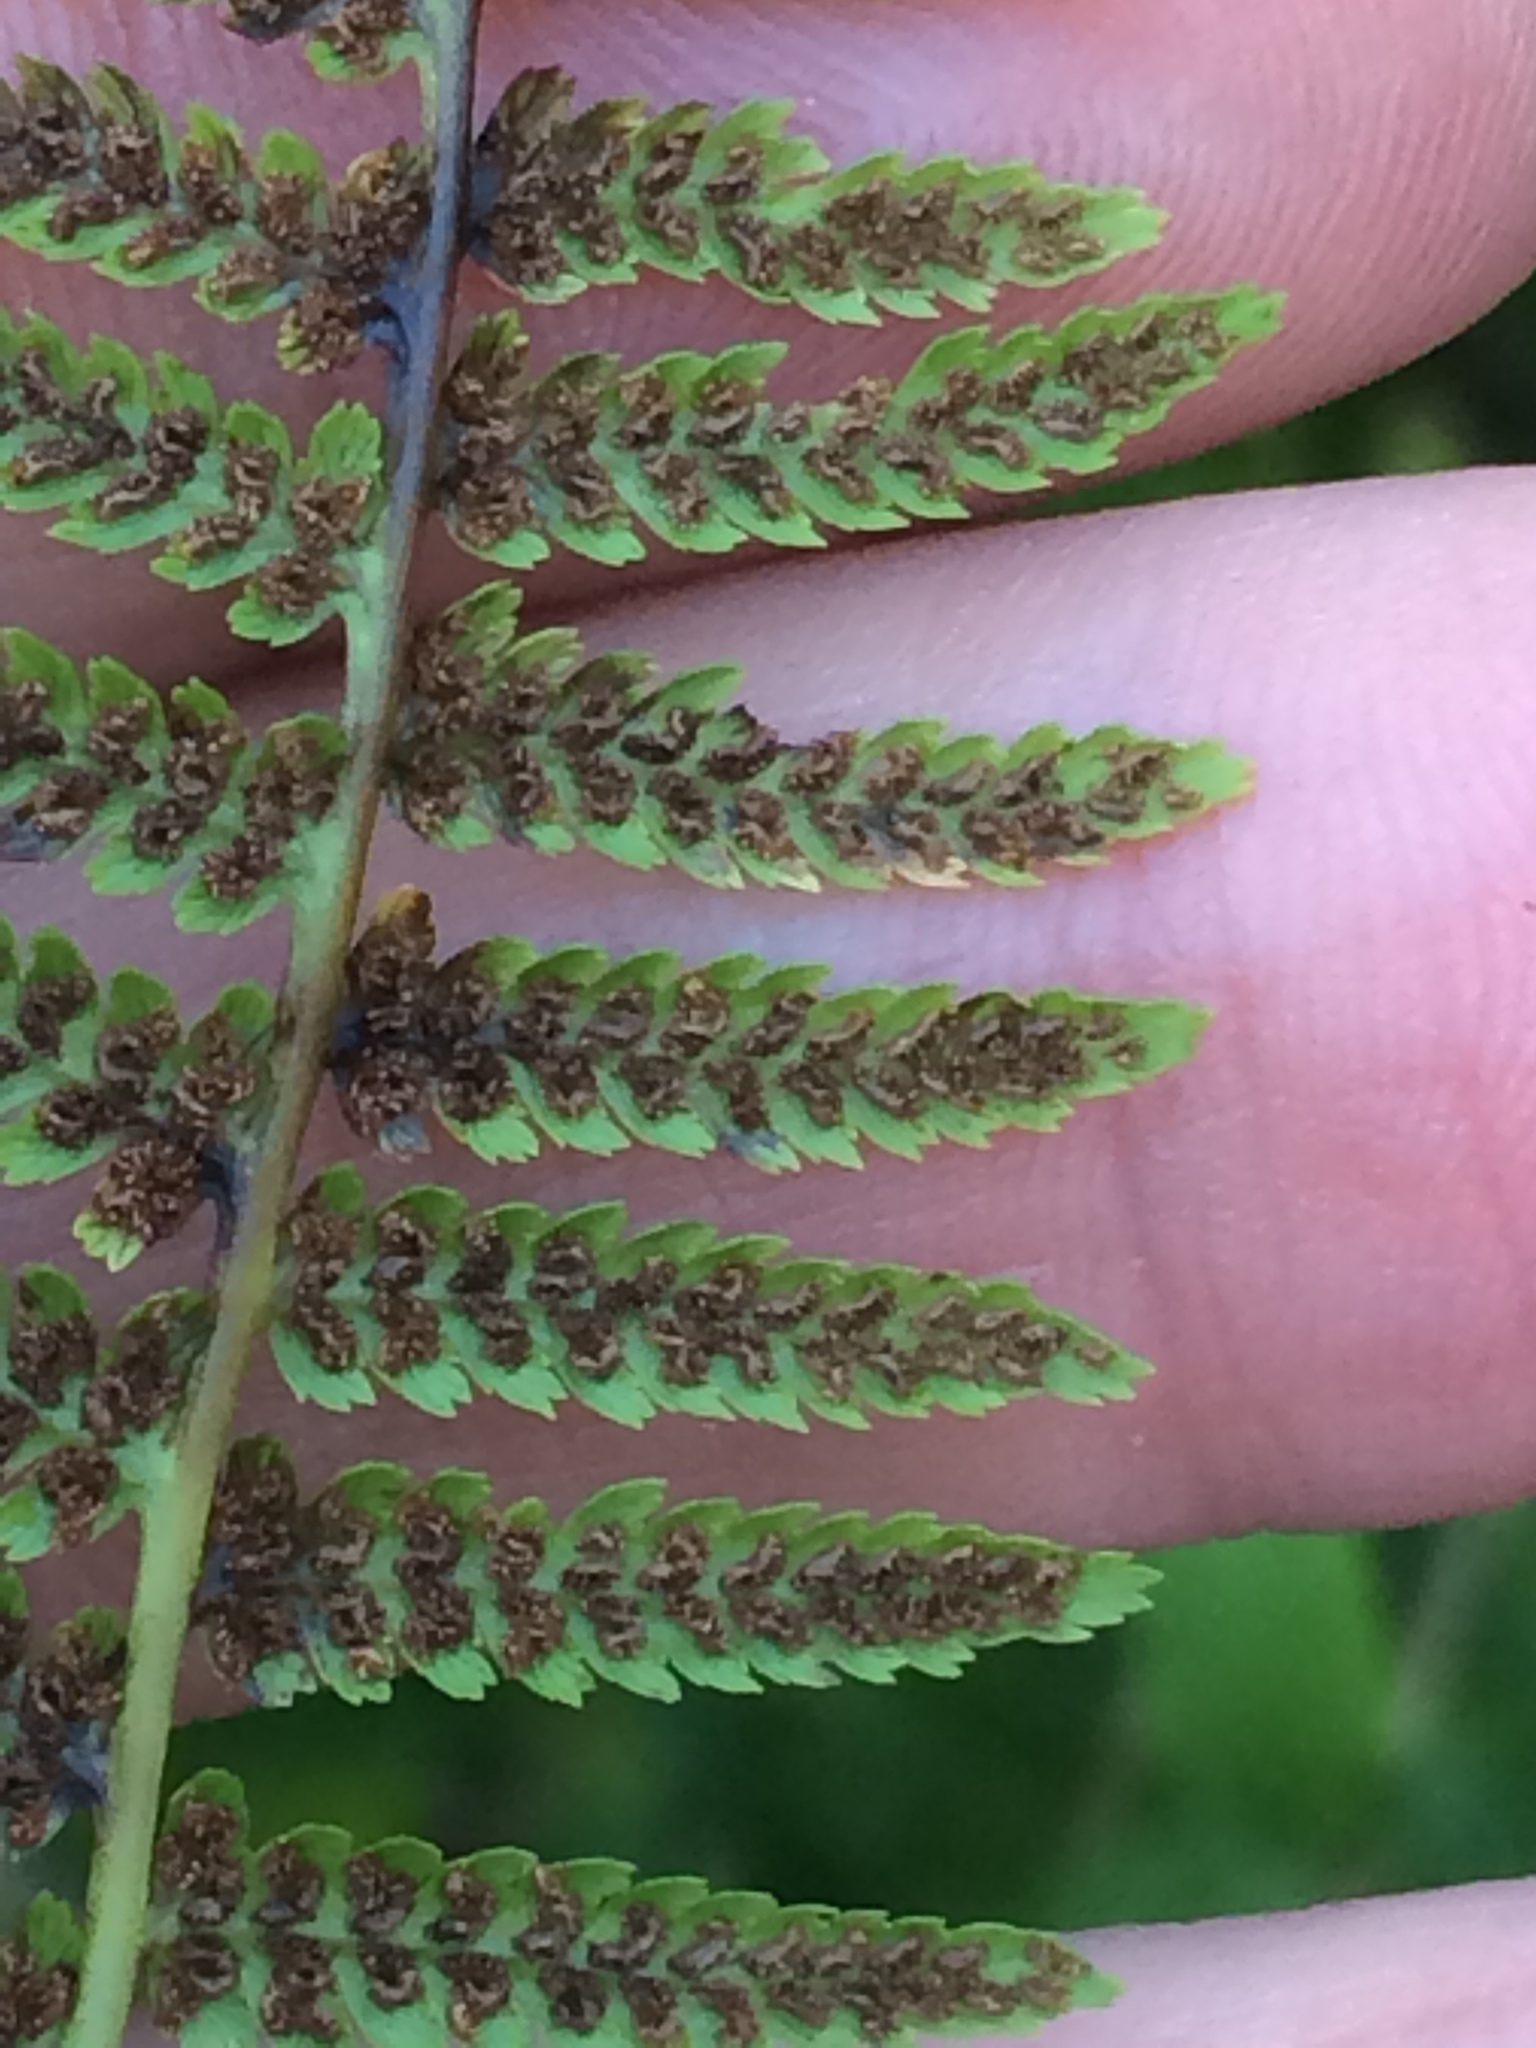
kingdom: Plantae
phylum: Tracheophyta
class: Polypodiopsida
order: Polypodiales
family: Athyriaceae
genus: Athyrium
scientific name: Athyrium angustum
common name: Northern lady fern
